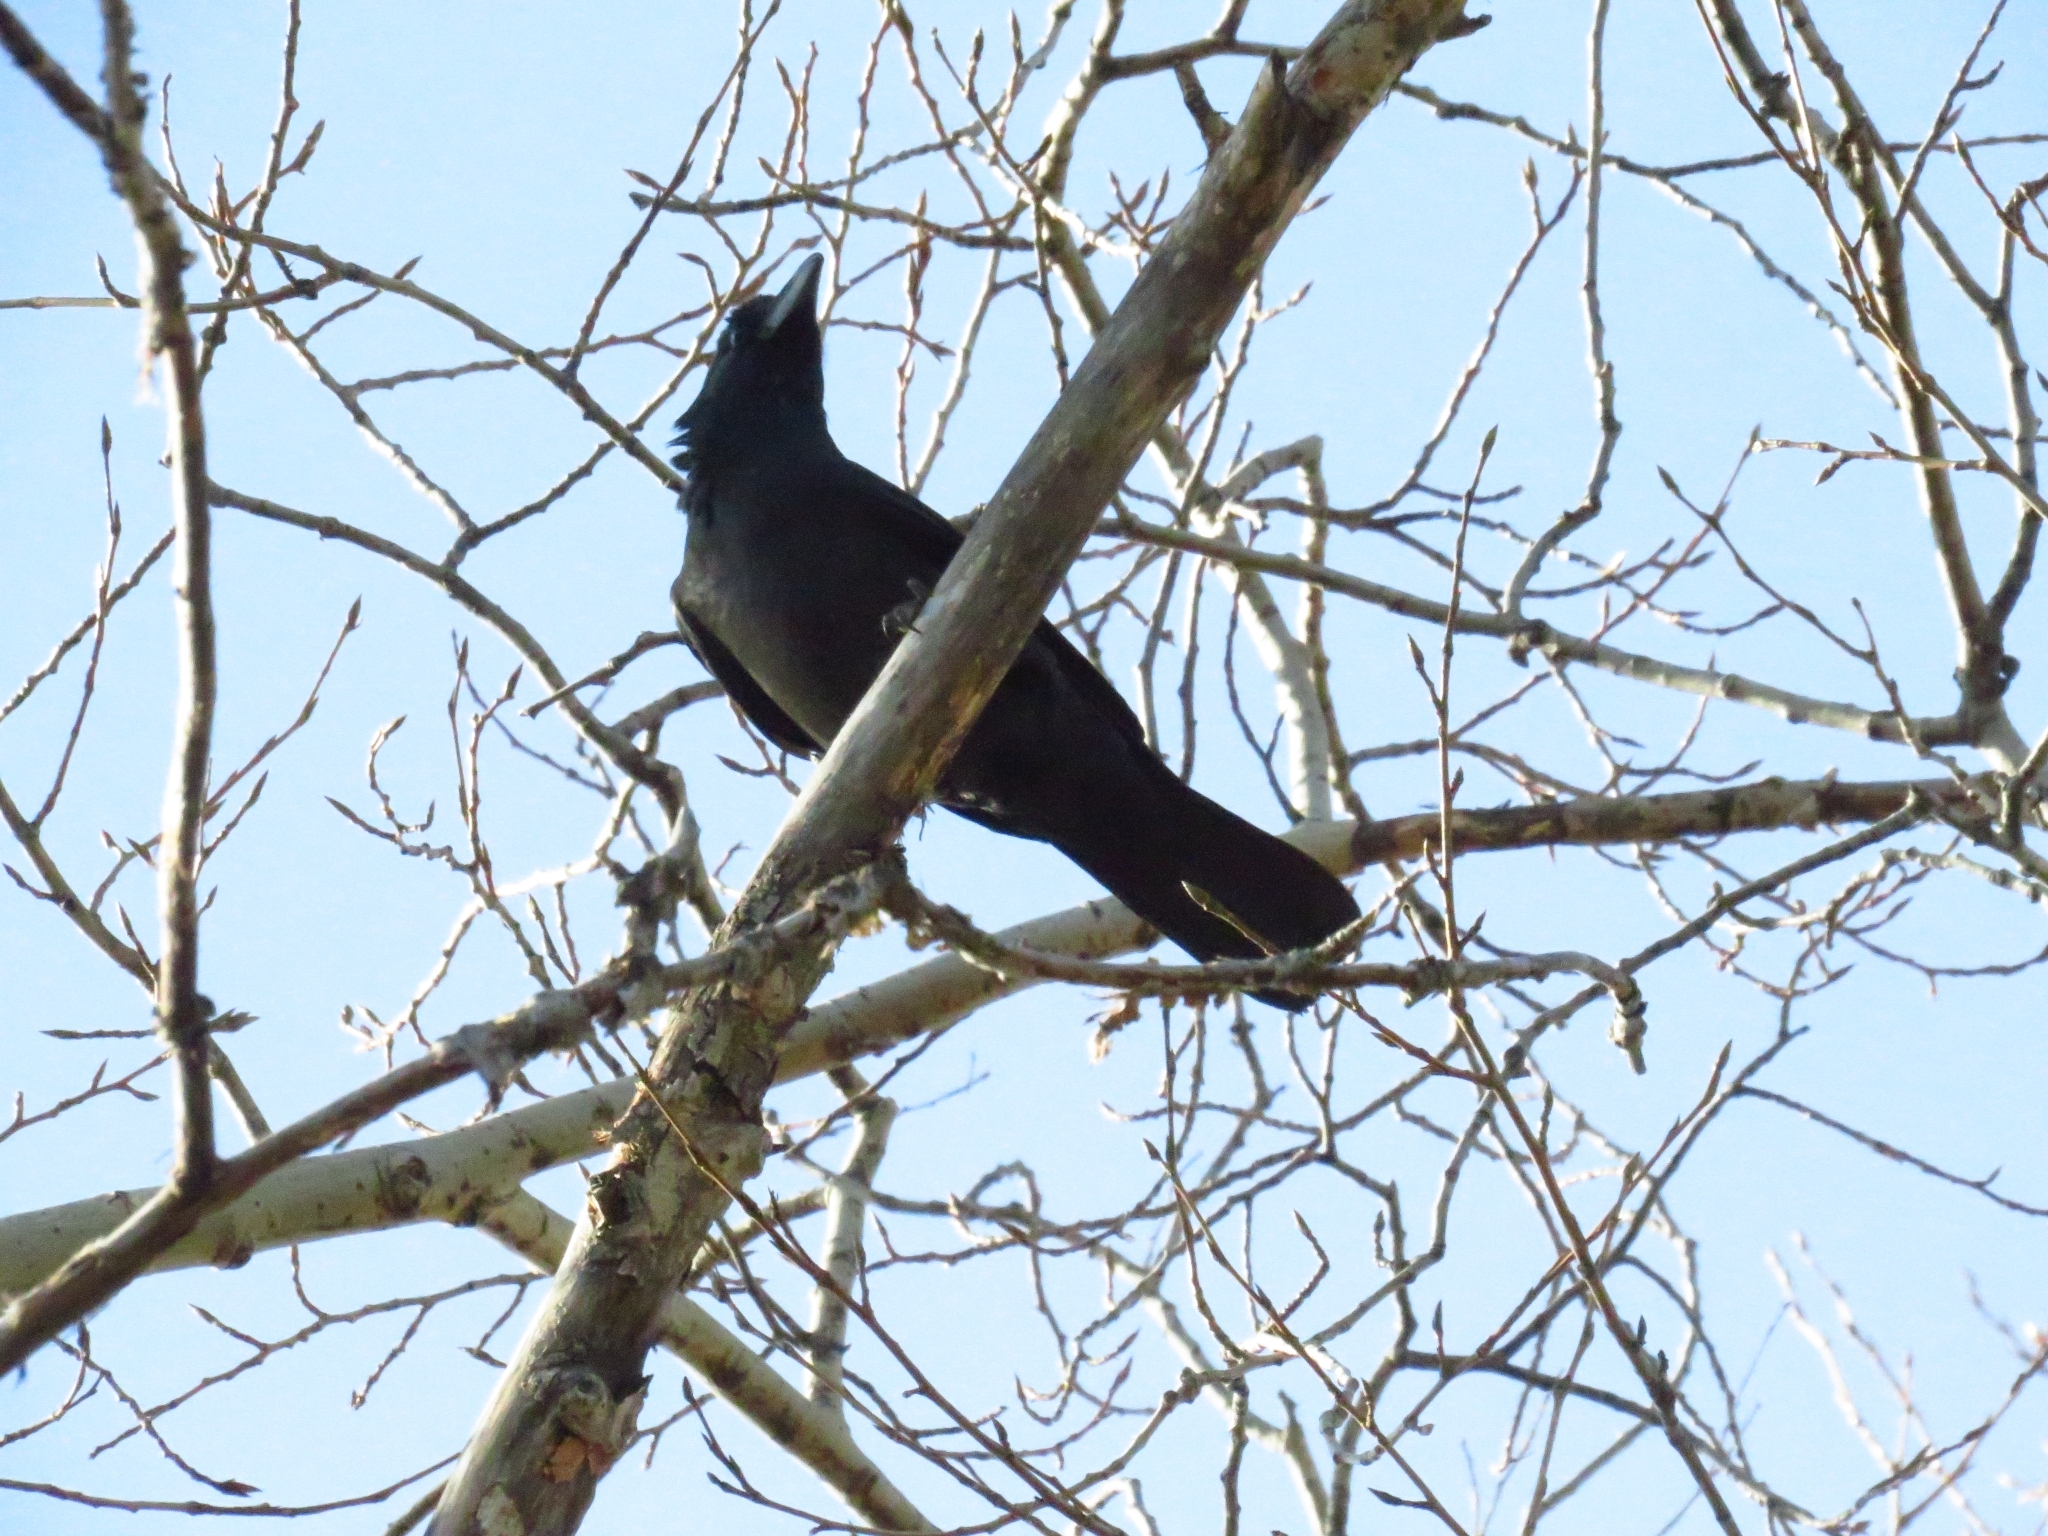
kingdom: Animalia
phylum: Chordata
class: Aves
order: Passeriformes
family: Corvidae
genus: Corvus
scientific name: Corvus corone
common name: Carrion crow
